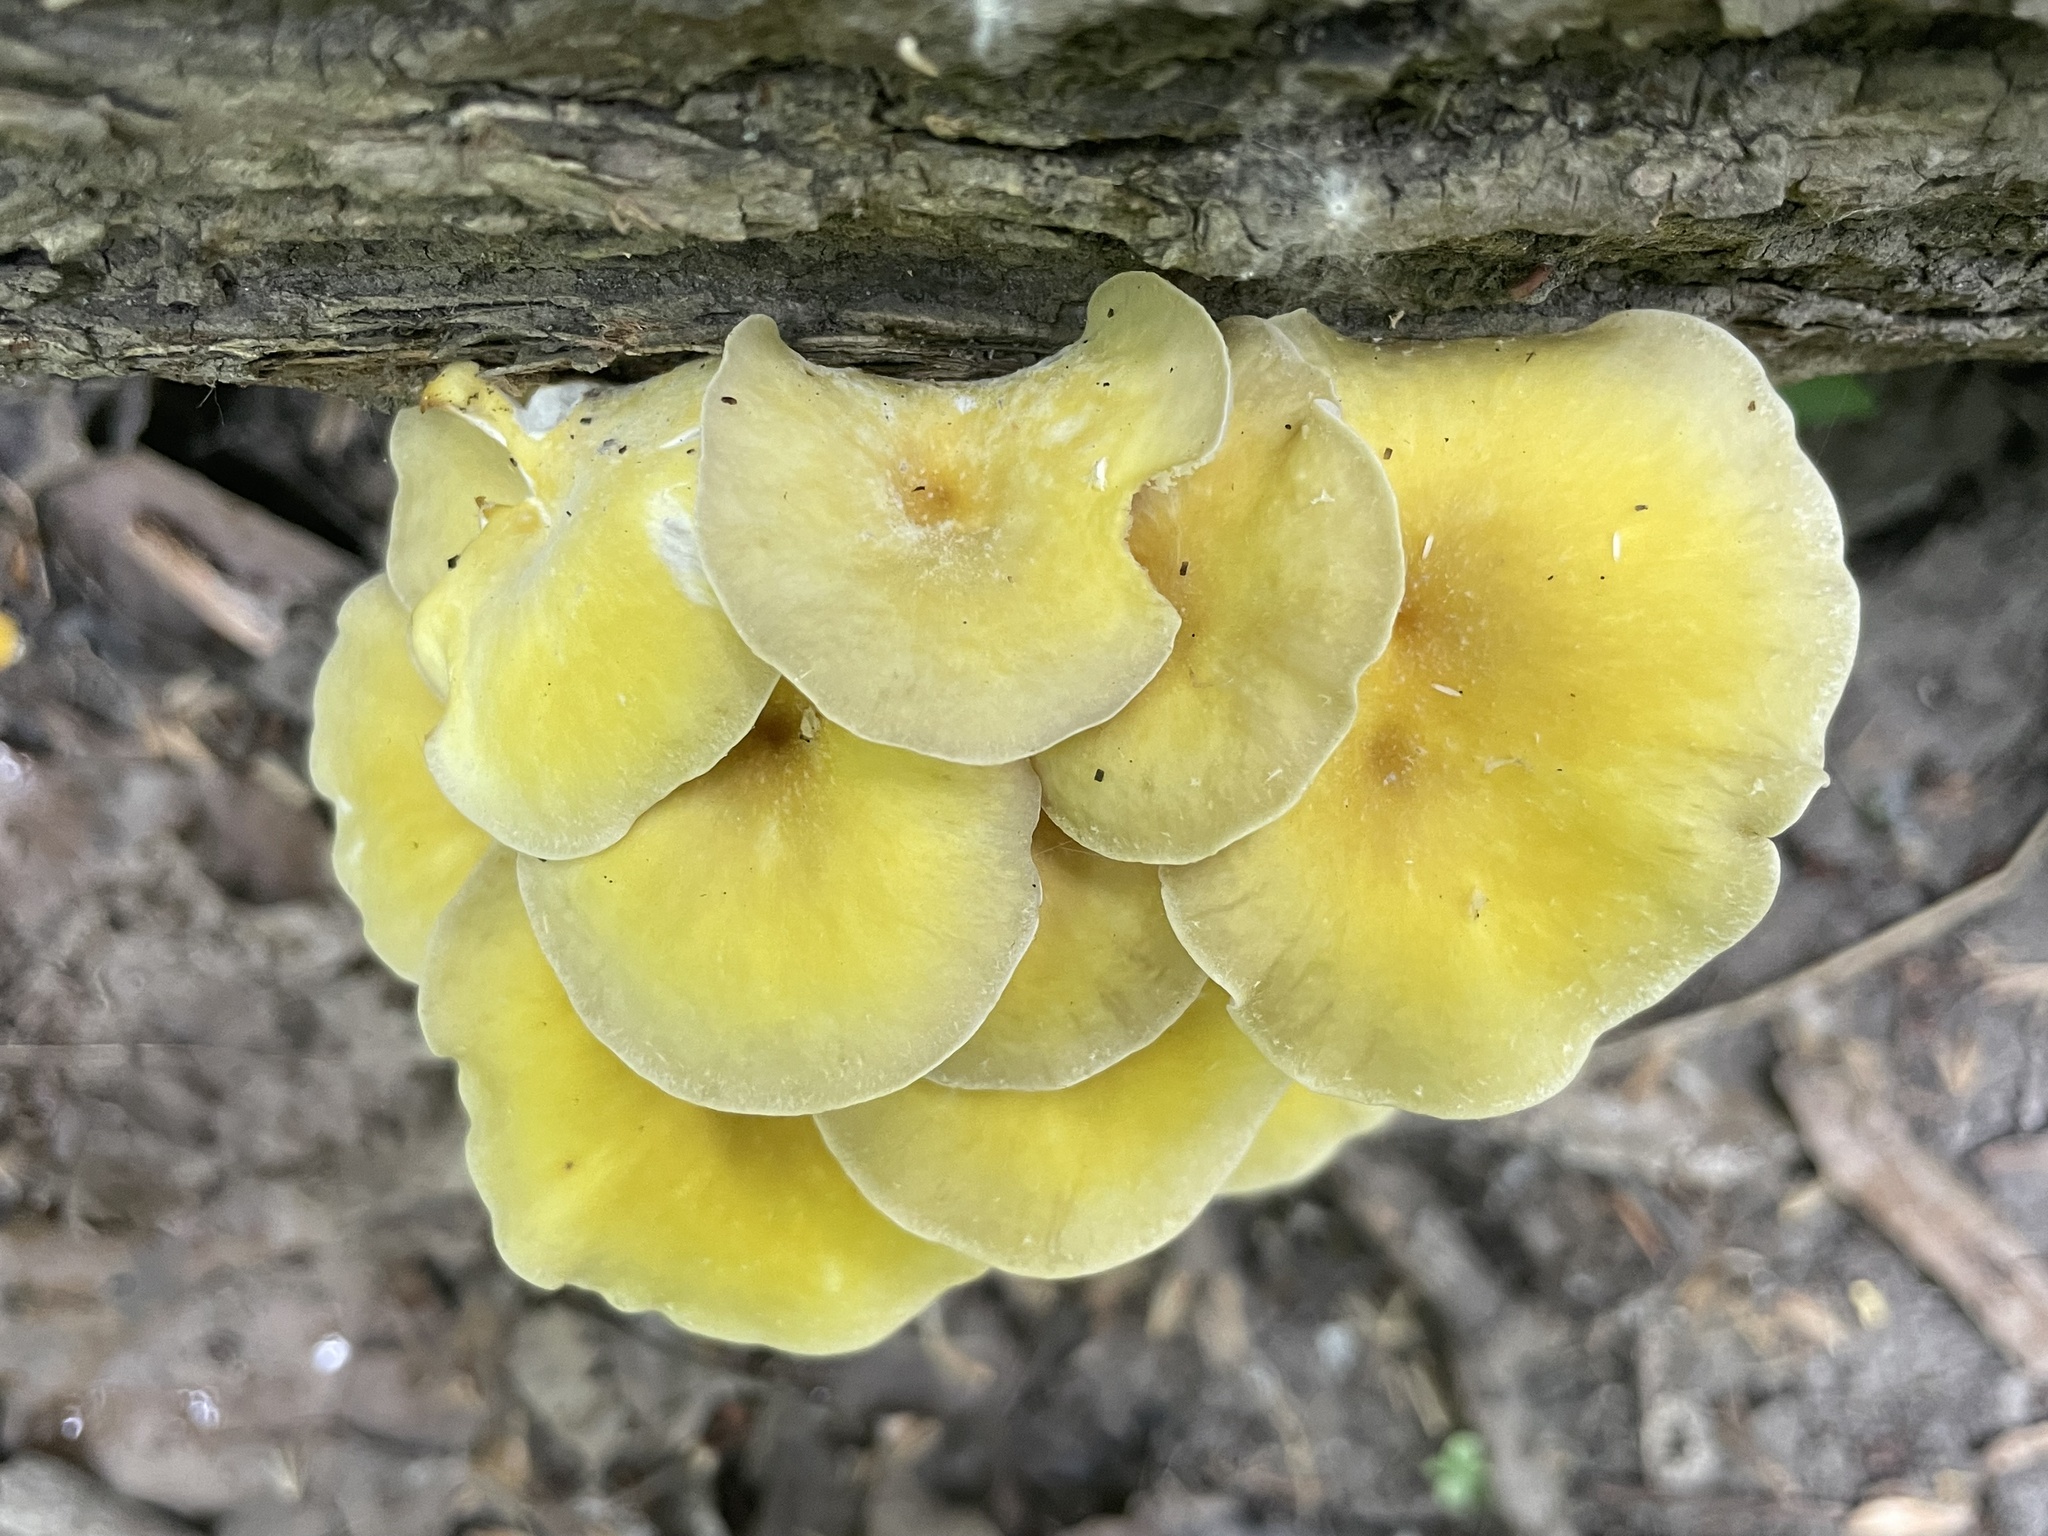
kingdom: Fungi
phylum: Basidiomycota
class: Agaricomycetes
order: Agaricales
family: Pleurotaceae
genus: Pleurotus
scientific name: Pleurotus citrinopileatus
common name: Golden oyster mushroom
